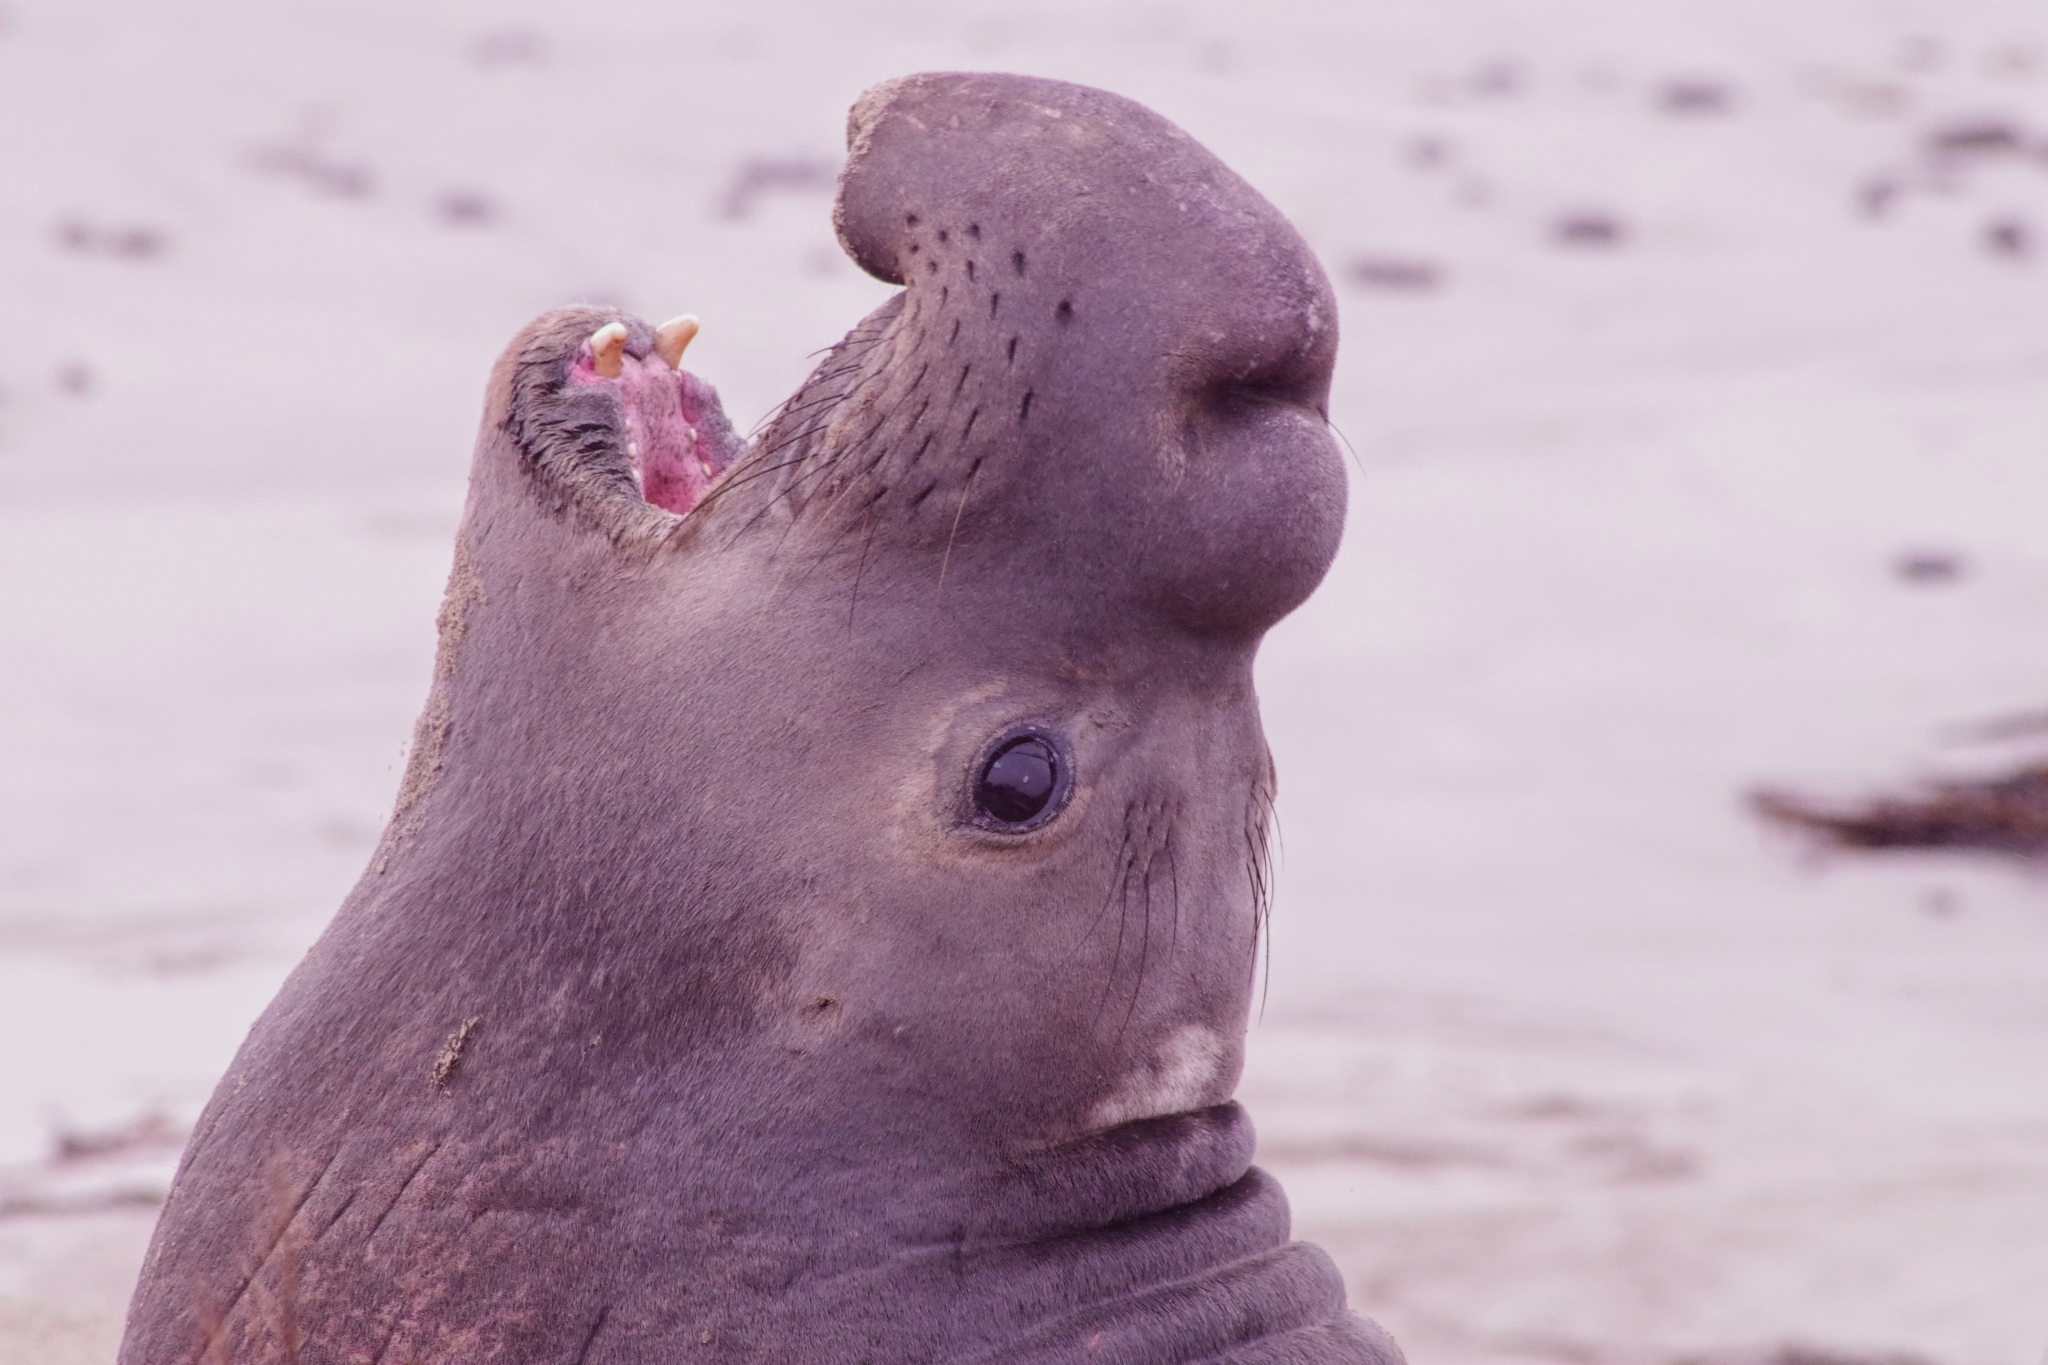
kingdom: Animalia
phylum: Chordata
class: Mammalia
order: Carnivora
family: Phocidae
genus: Mirounga
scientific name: Mirounga angustirostris
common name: Northern elephant seal
